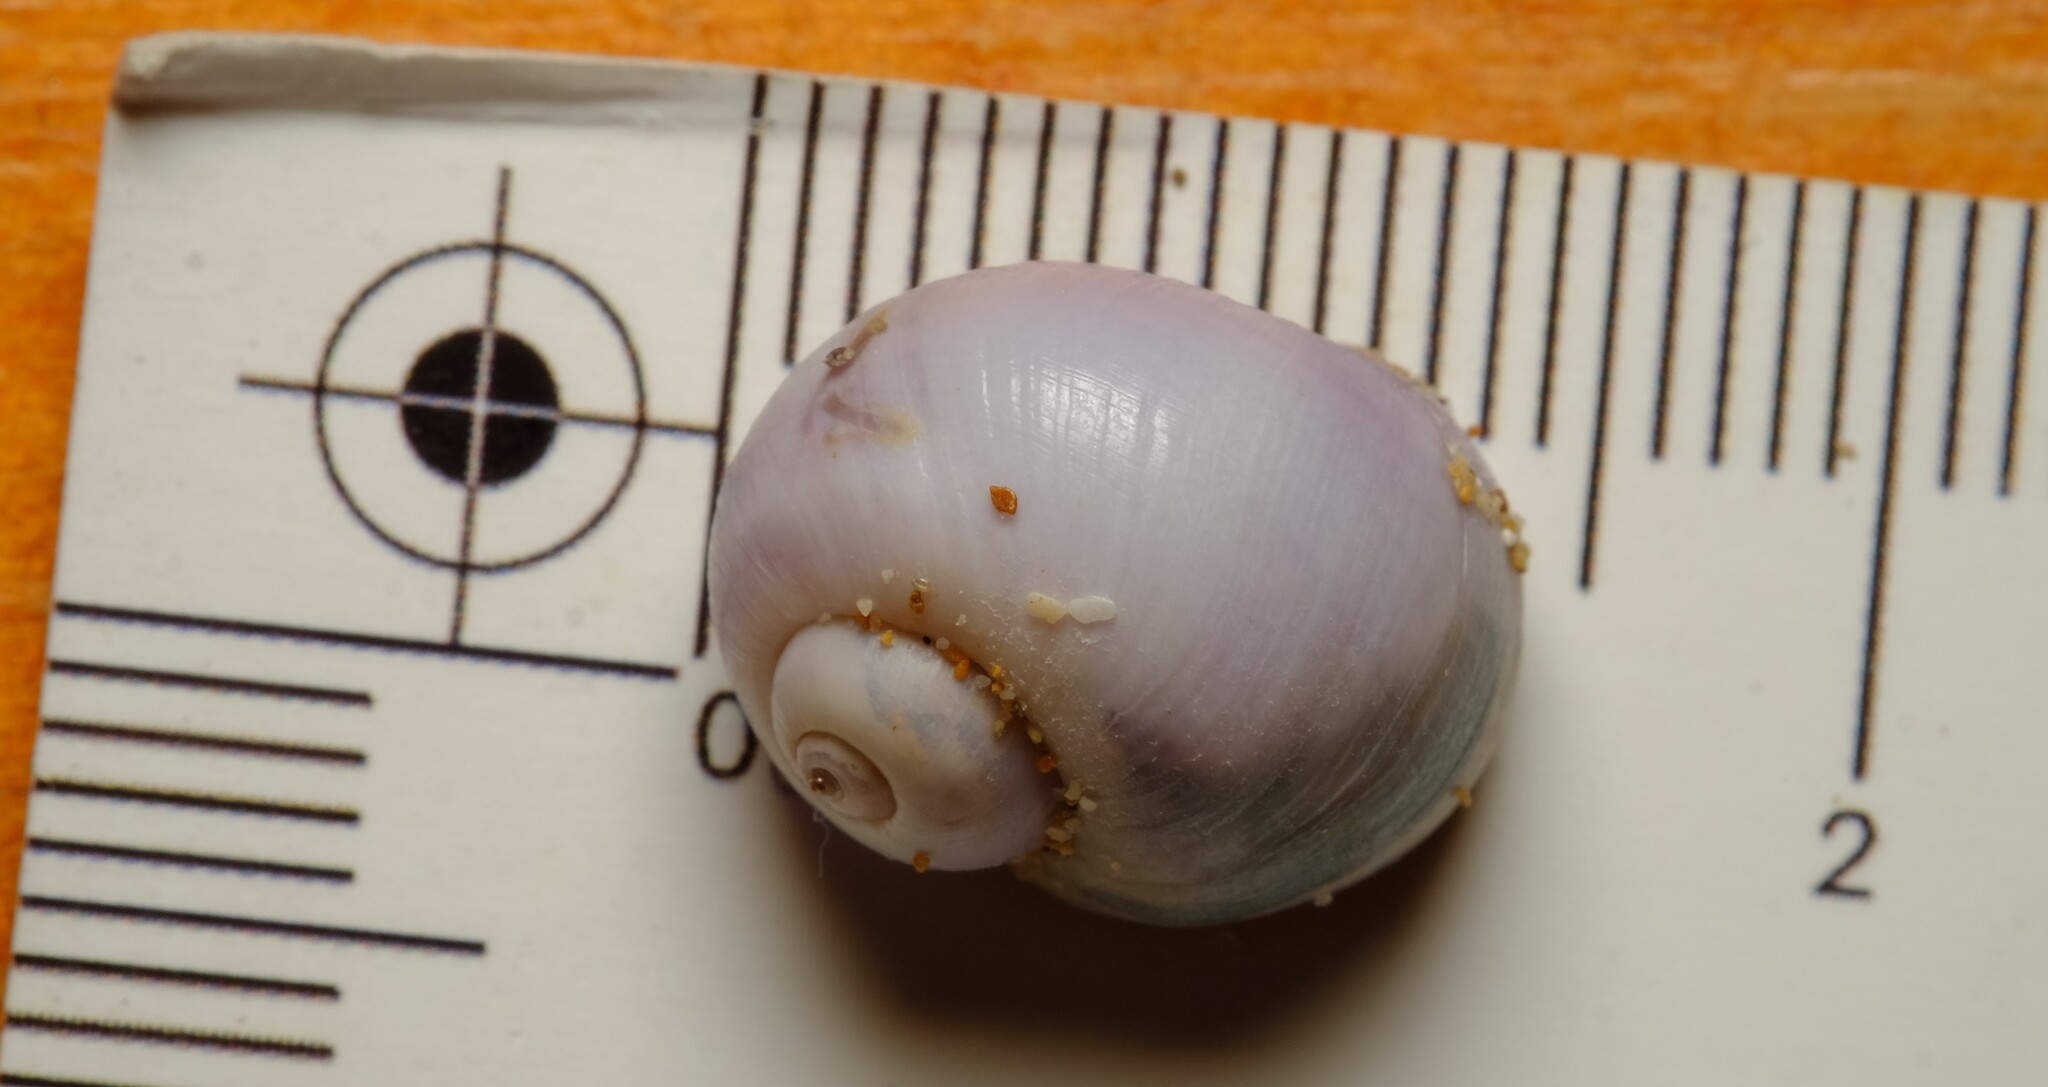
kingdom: Animalia
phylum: Mollusca
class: Gastropoda
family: Epitoniidae
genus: Janthina
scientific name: Janthina pallida
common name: Pale janthina
